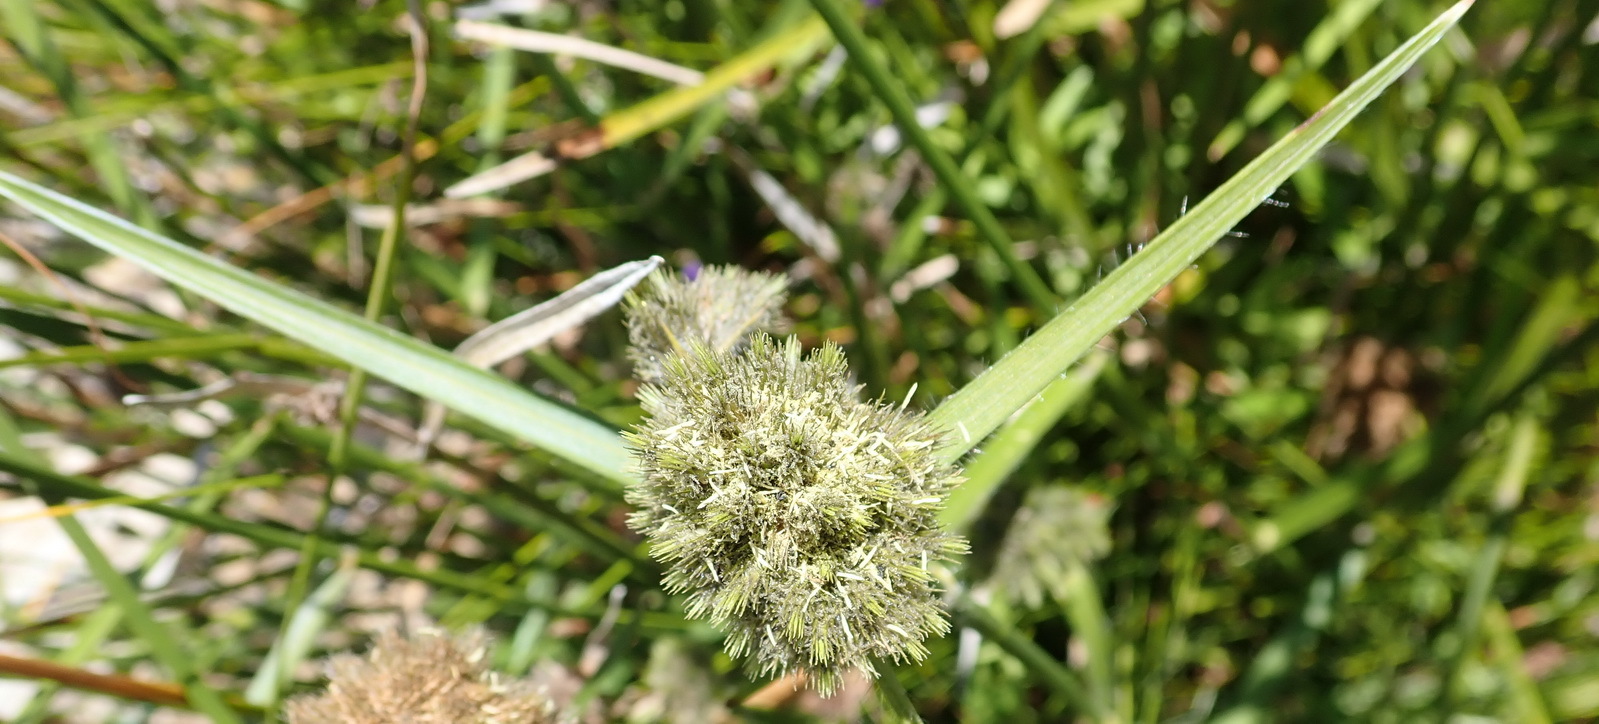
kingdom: Plantae
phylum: Tracheophyta
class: Liliopsida
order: Poales
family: Cyperaceae
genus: Fuirena
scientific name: Fuirena hirsuta
